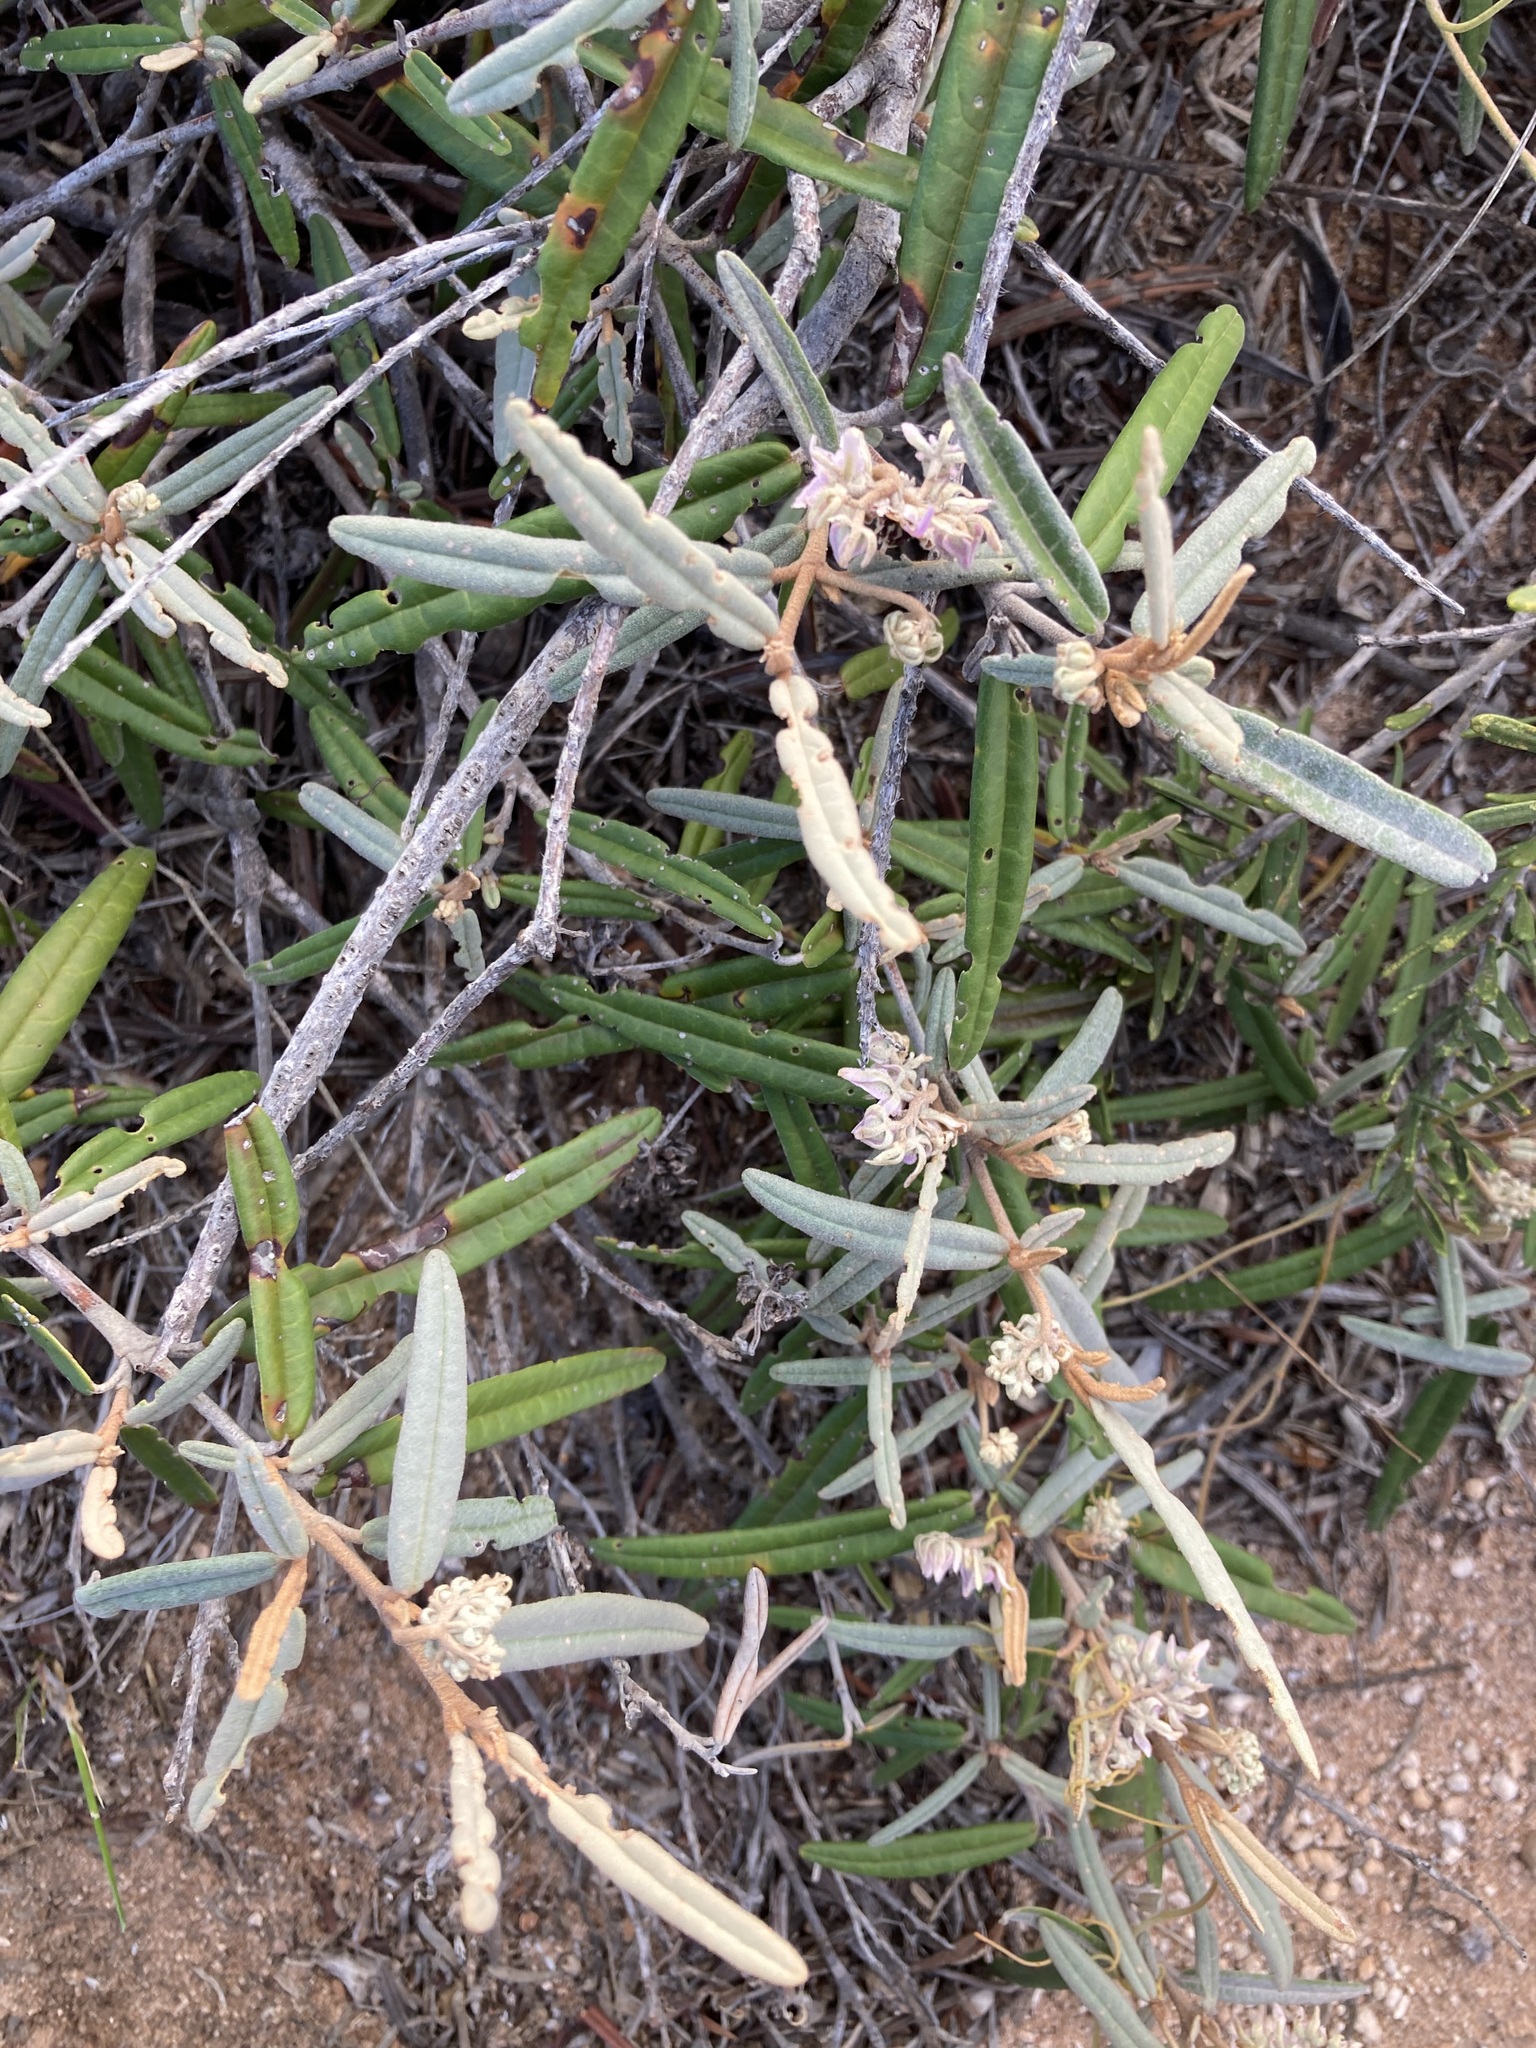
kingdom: Plantae
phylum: Tracheophyta
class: Magnoliopsida
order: Malvales
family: Malvaceae
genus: Lasiopetalum
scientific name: Lasiopetalum angustifolium
